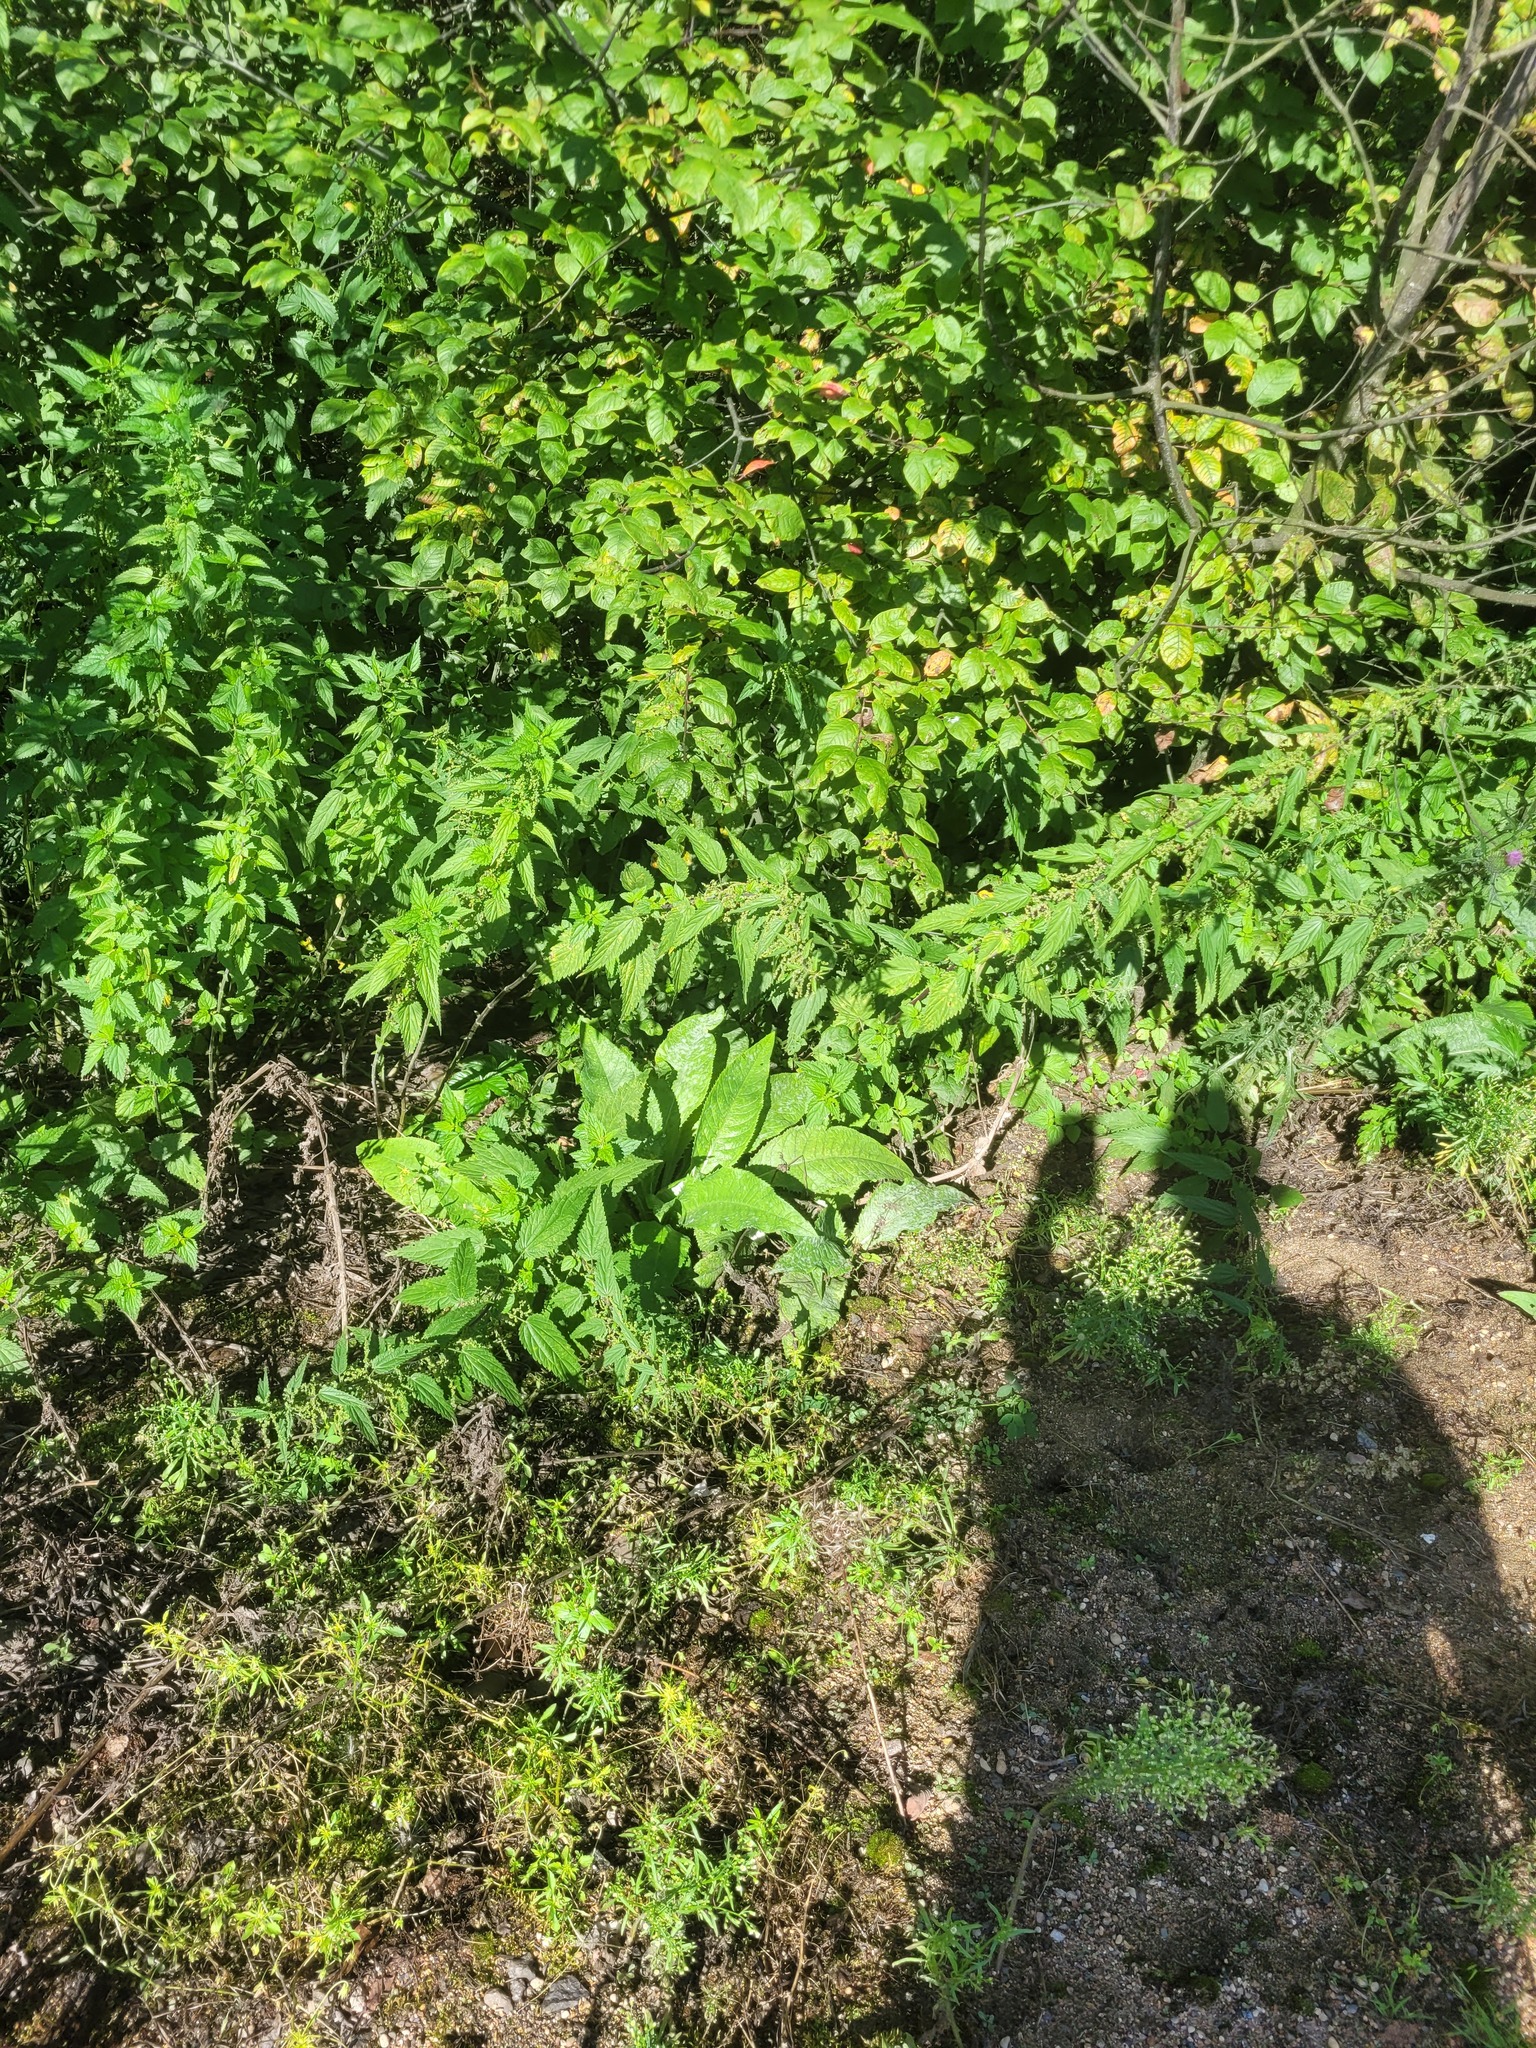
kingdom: Plantae
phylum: Tracheophyta
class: Magnoliopsida
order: Asterales
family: Asteraceae
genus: Cirsium
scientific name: Cirsium heterophyllum
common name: Melancholy thistle
